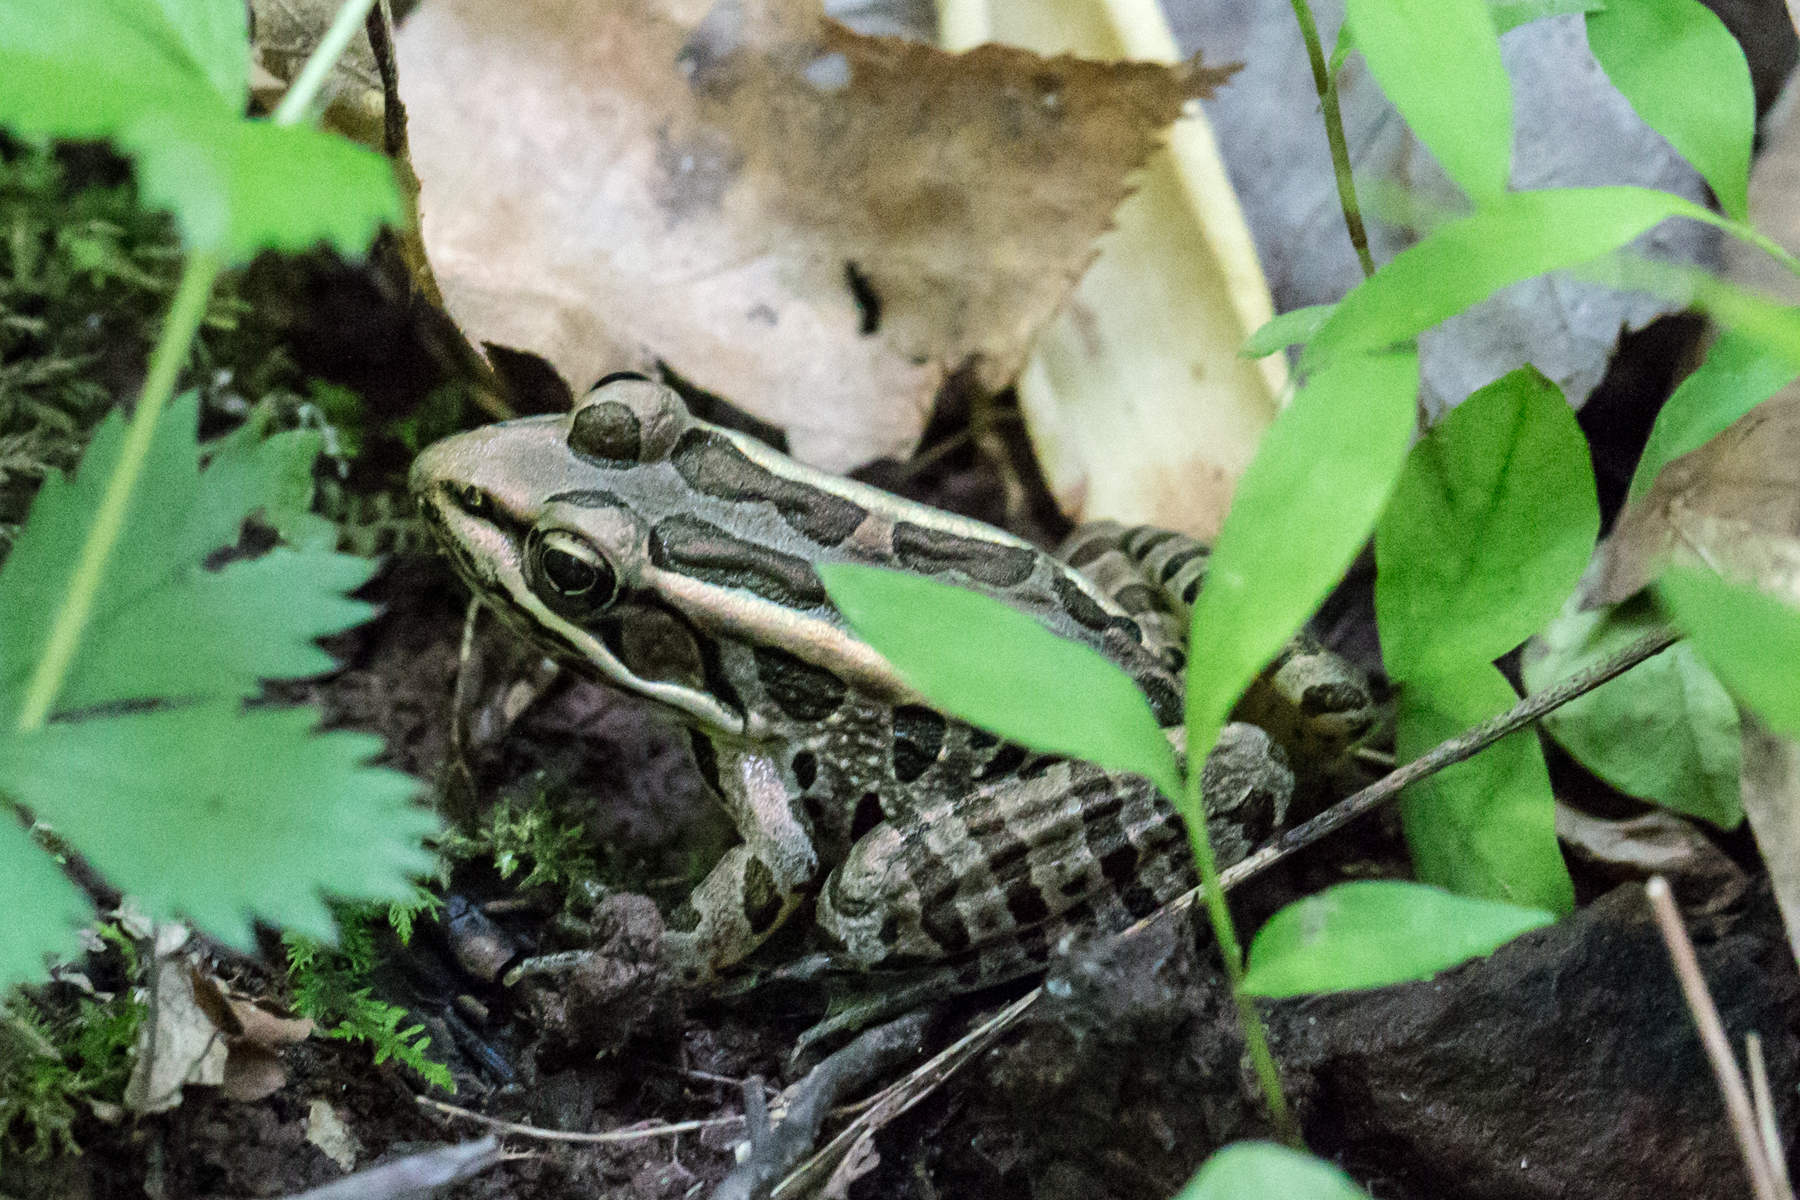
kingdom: Animalia
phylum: Chordata
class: Amphibia
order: Anura
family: Ranidae
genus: Lithobates
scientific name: Lithobates palustris
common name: Pickerel frog
